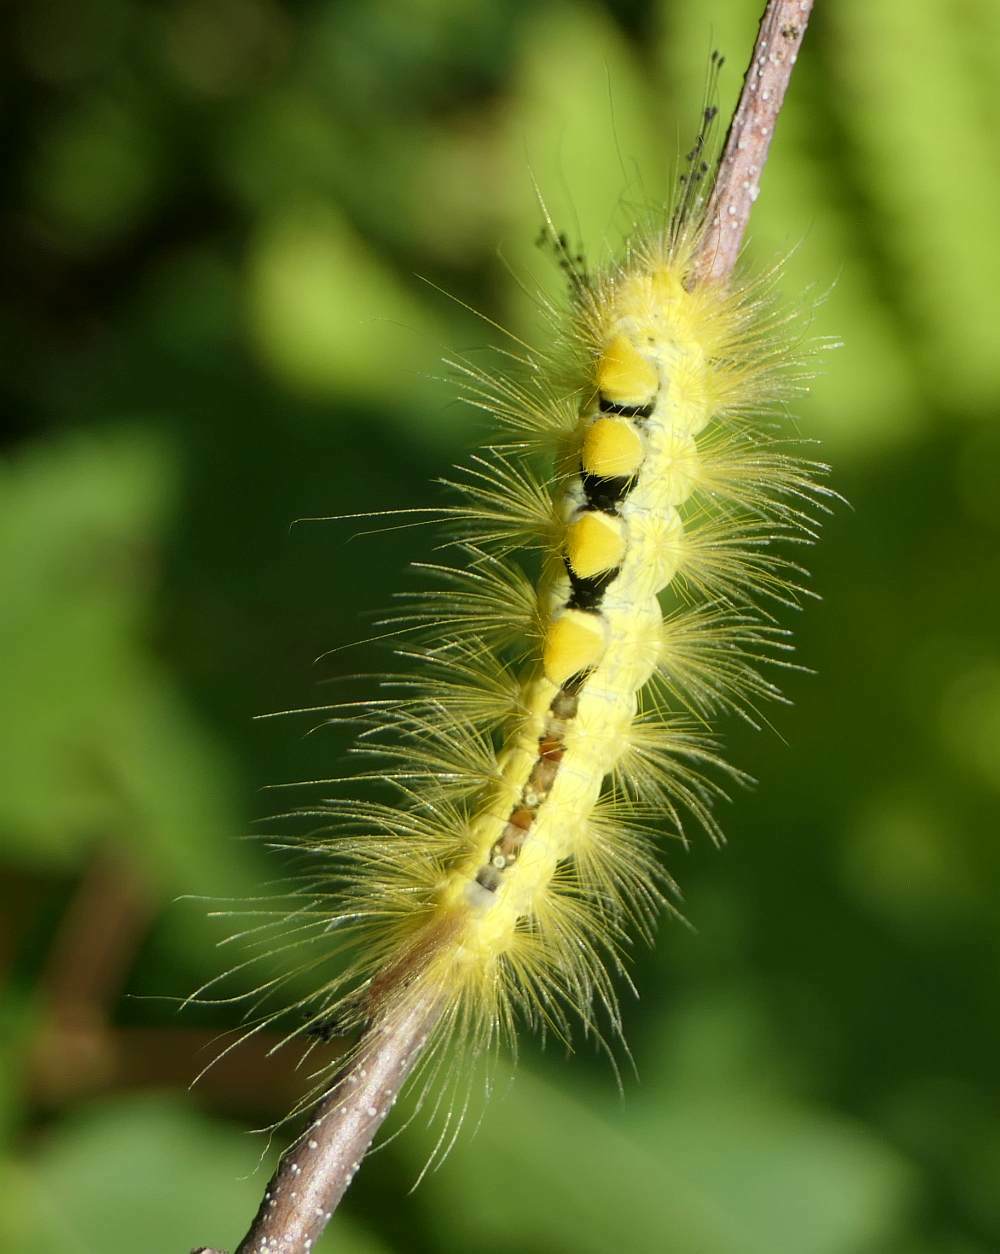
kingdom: Animalia
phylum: Arthropoda
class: Insecta
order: Lepidoptera
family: Erebidae
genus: Orgyia
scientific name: Orgyia definita
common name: Definite tussock moth
